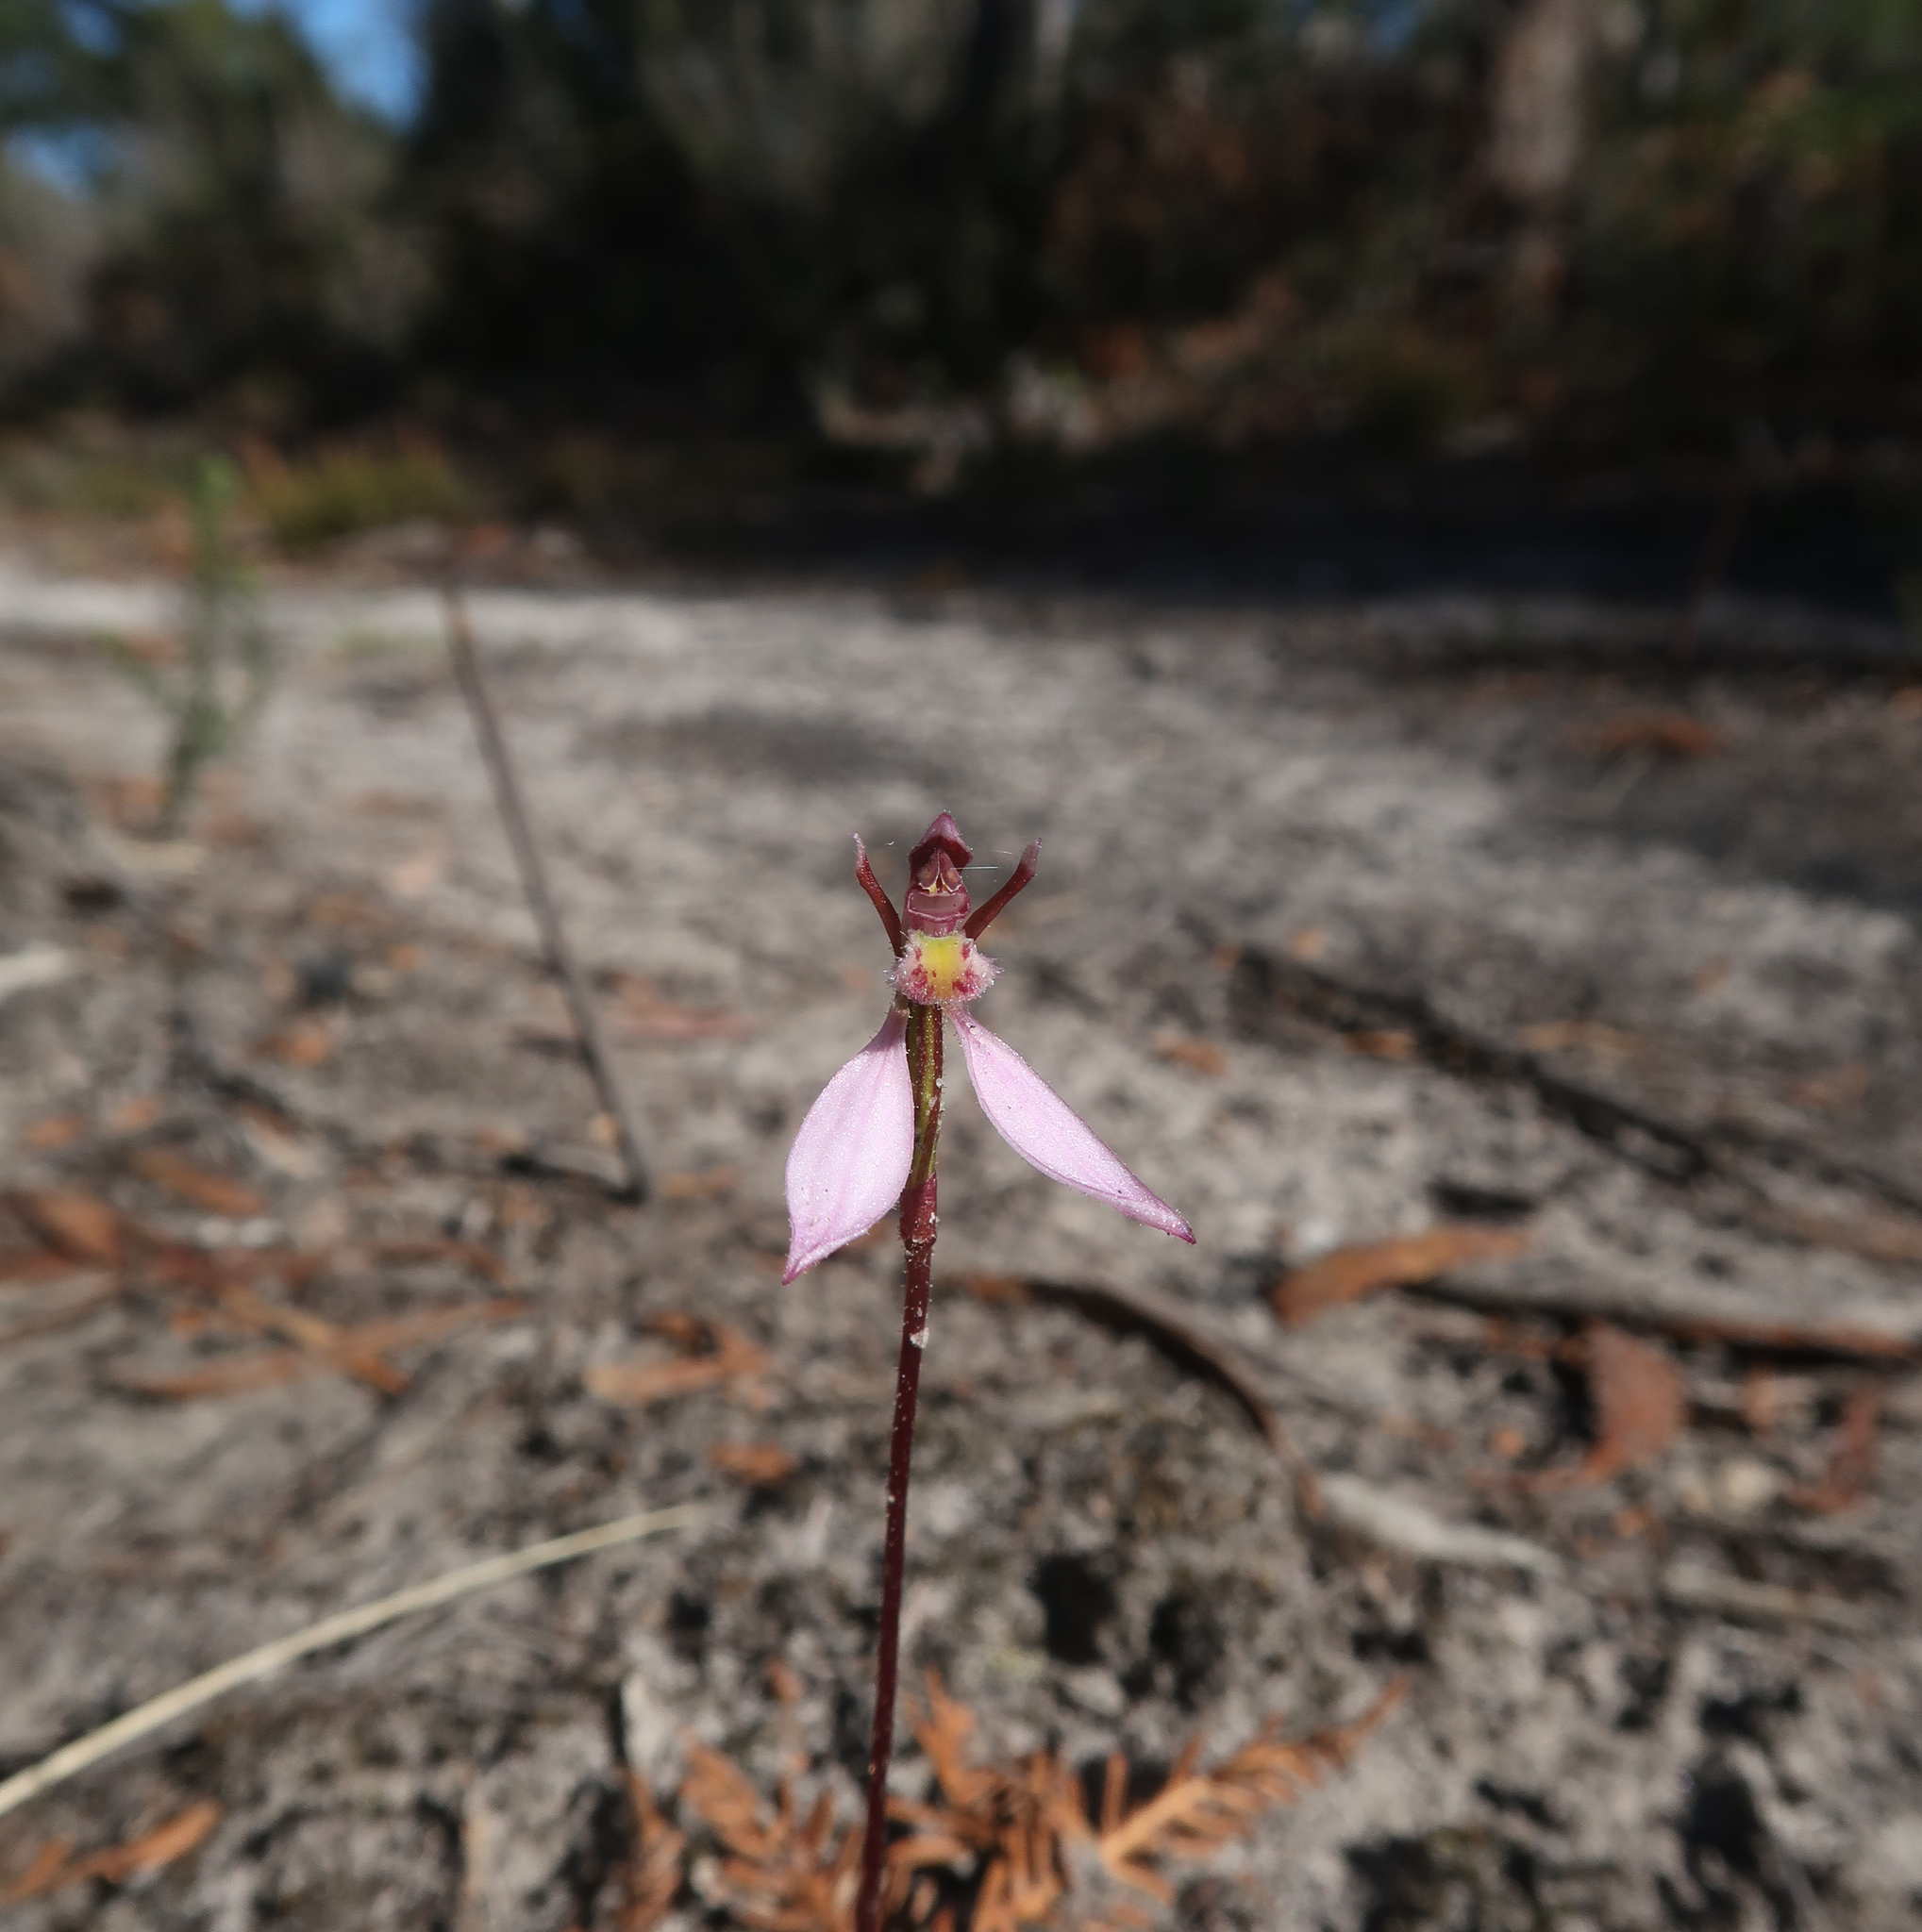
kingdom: Plantae
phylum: Tracheophyta
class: Liliopsida
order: Asparagales
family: Orchidaceae
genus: Eriochilus
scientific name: Eriochilus cucullatus
